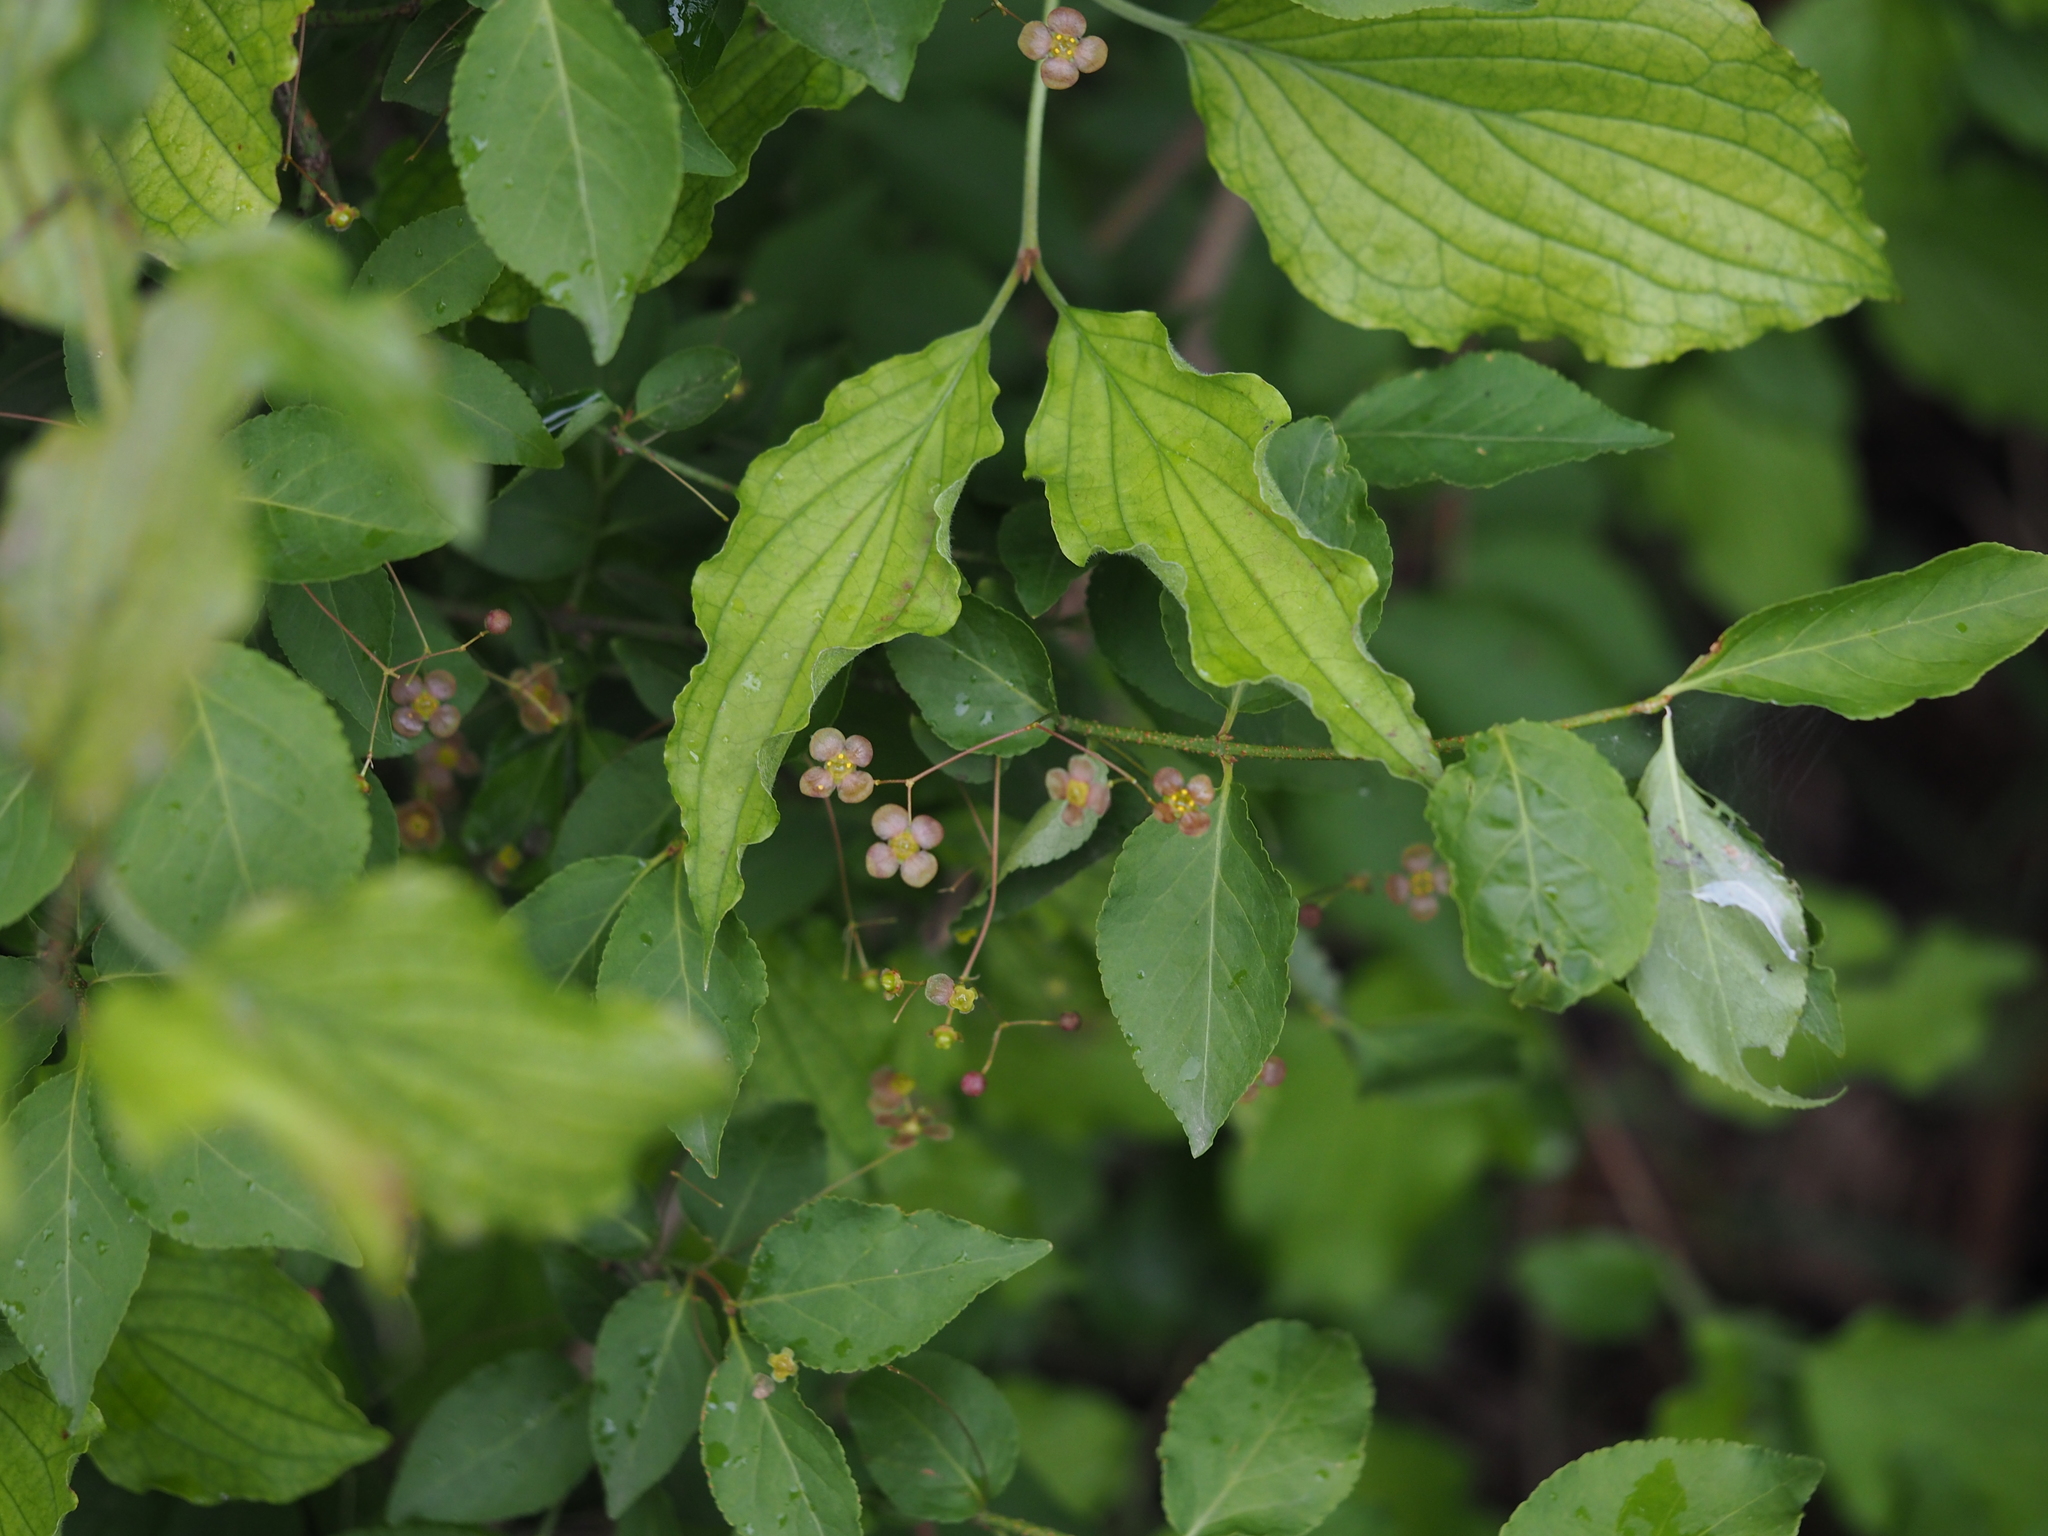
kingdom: Plantae
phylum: Tracheophyta
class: Magnoliopsida
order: Celastrales
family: Celastraceae
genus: Euonymus
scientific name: Euonymus verrucosus
